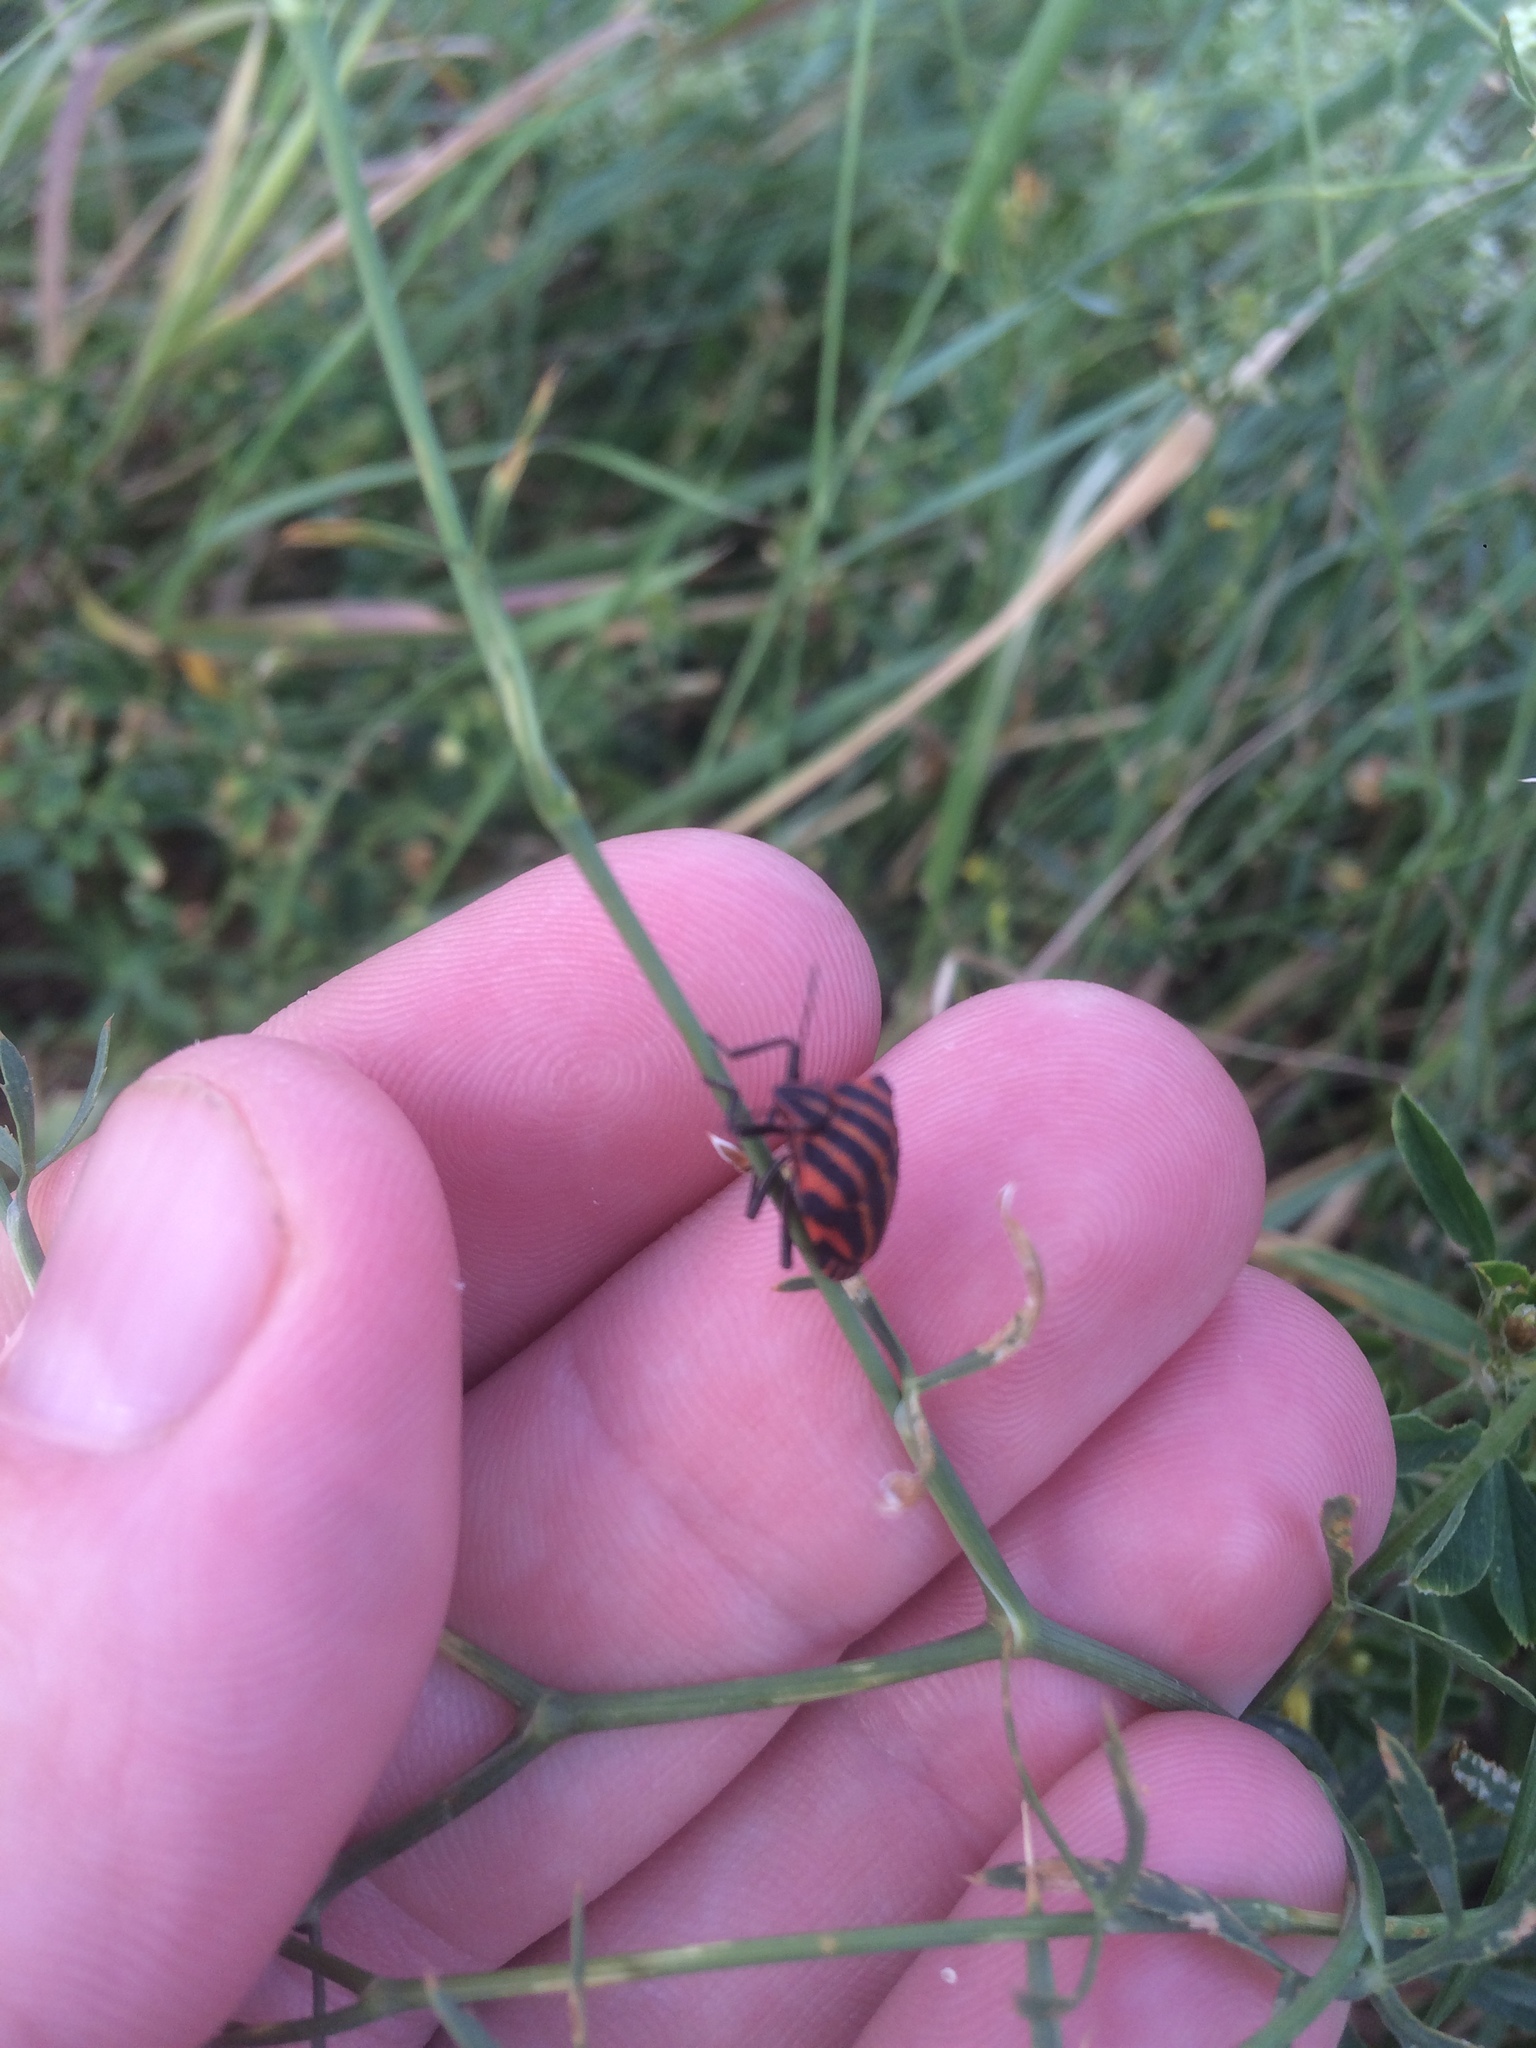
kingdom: Animalia
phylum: Arthropoda
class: Insecta
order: Hemiptera
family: Pentatomidae
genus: Graphosoma
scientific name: Graphosoma italicum
